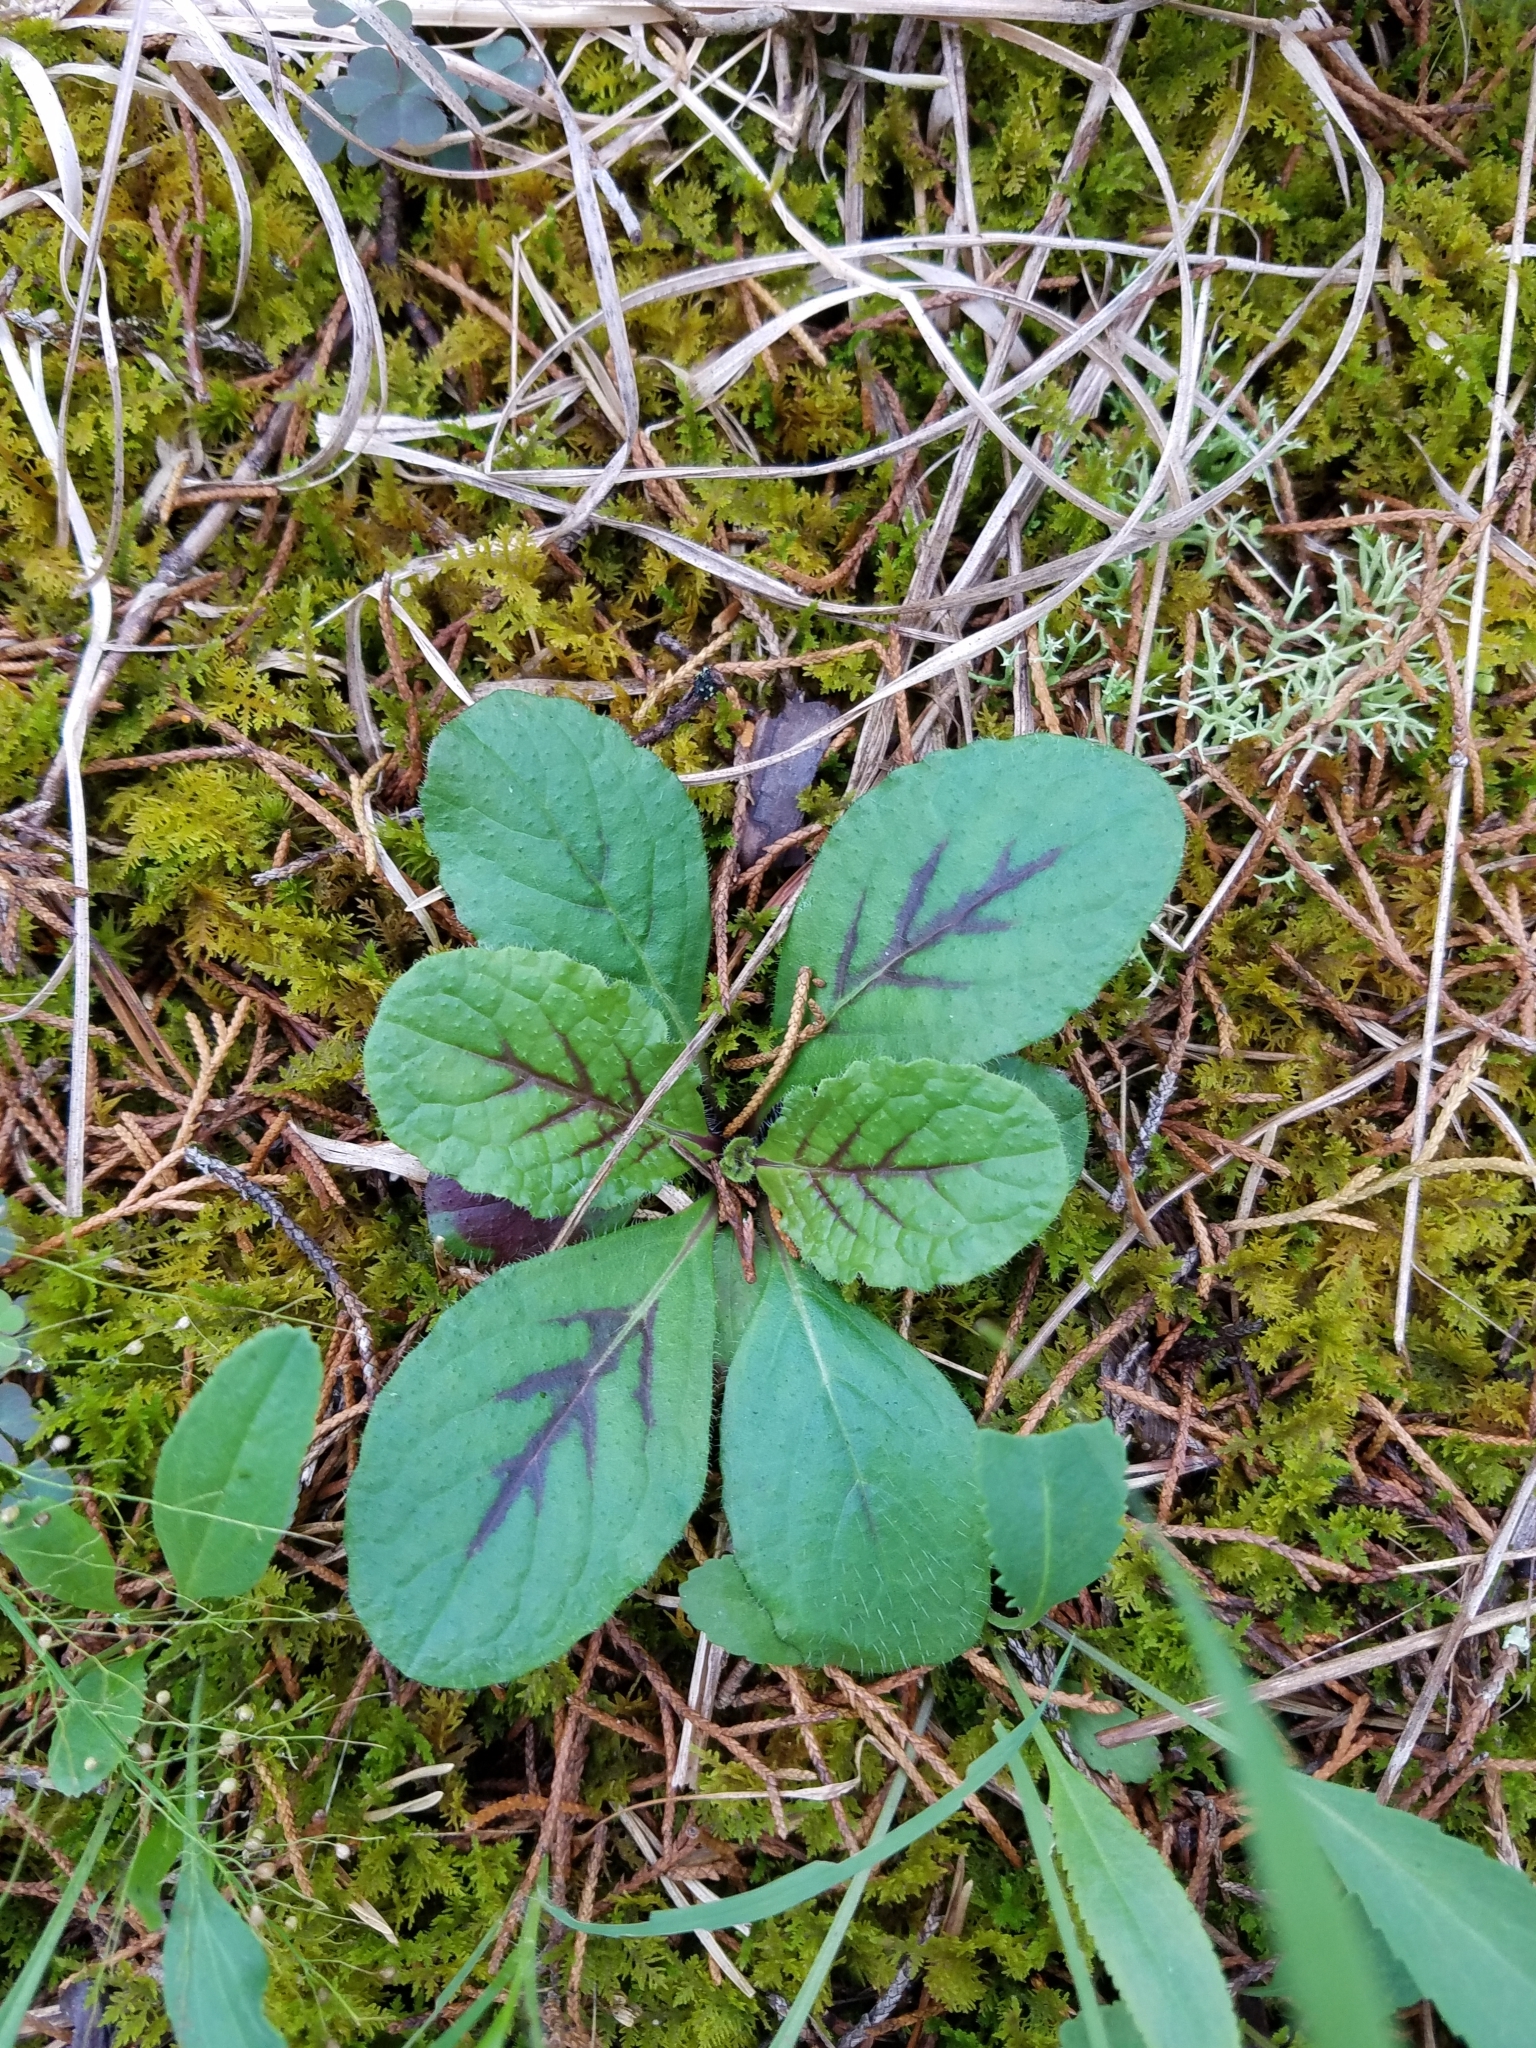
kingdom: Plantae
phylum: Tracheophyta
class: Magnoliopsida
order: Asterales
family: Asteraceae
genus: Hieracium
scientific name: Hieracium venosum
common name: Rattlesnake hawkweed
